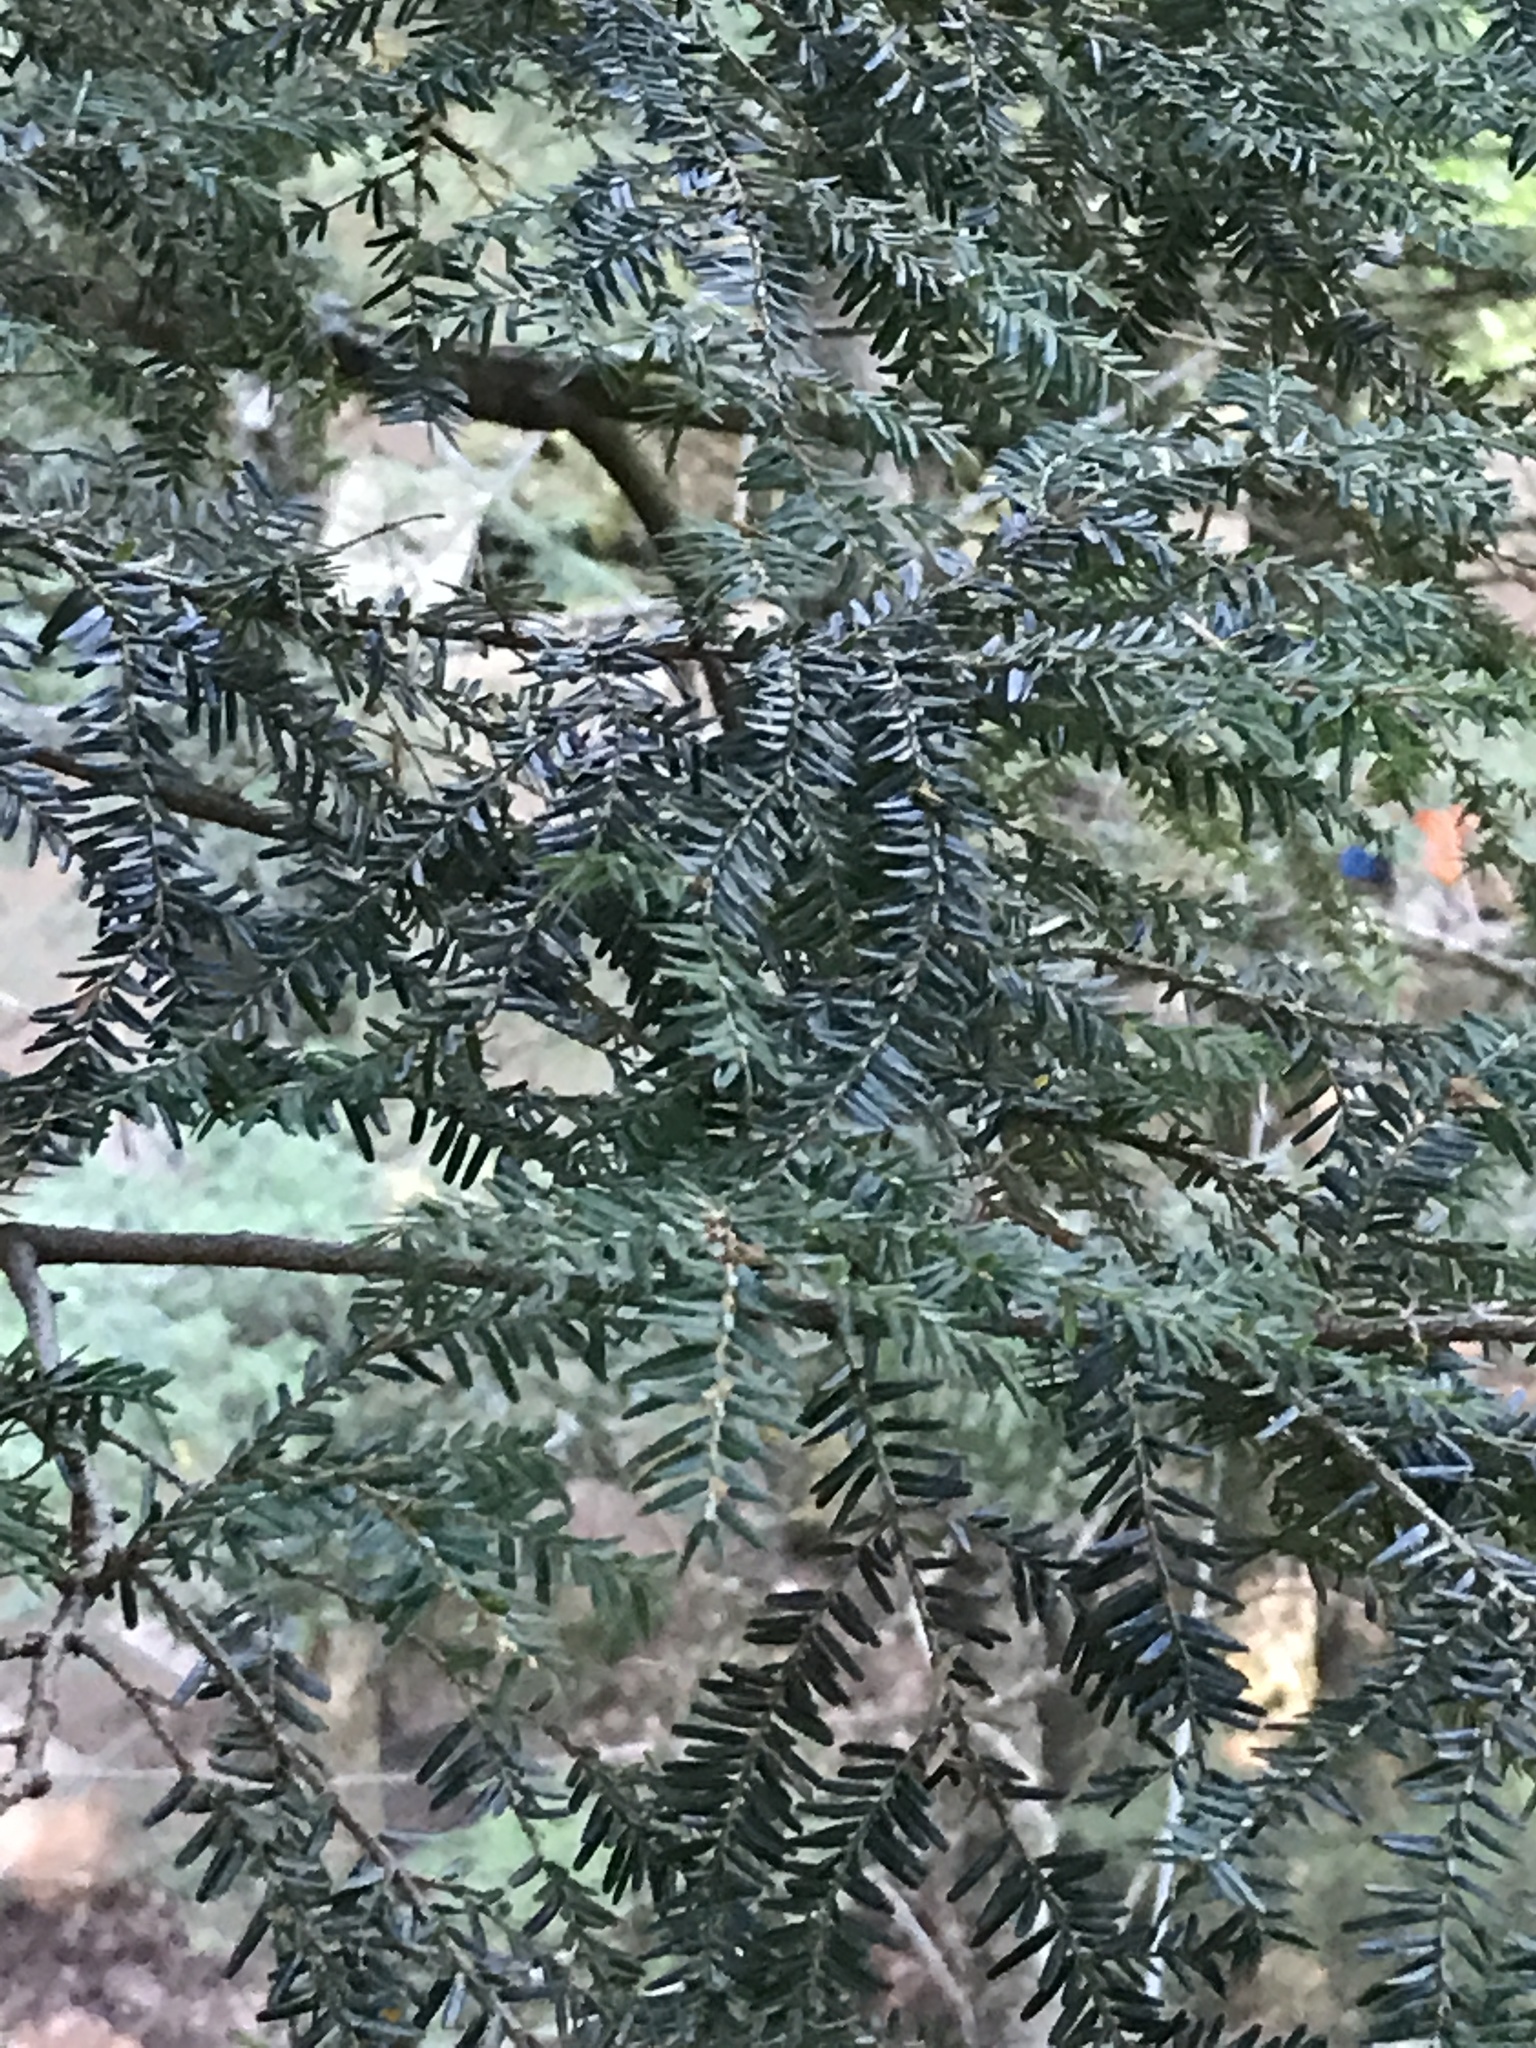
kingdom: Plantae
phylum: Tracheophyta
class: Pinopsida
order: Pinales
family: Pinaceae
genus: Tsuga
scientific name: Tsuga canadensis
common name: Eastern hemlock
